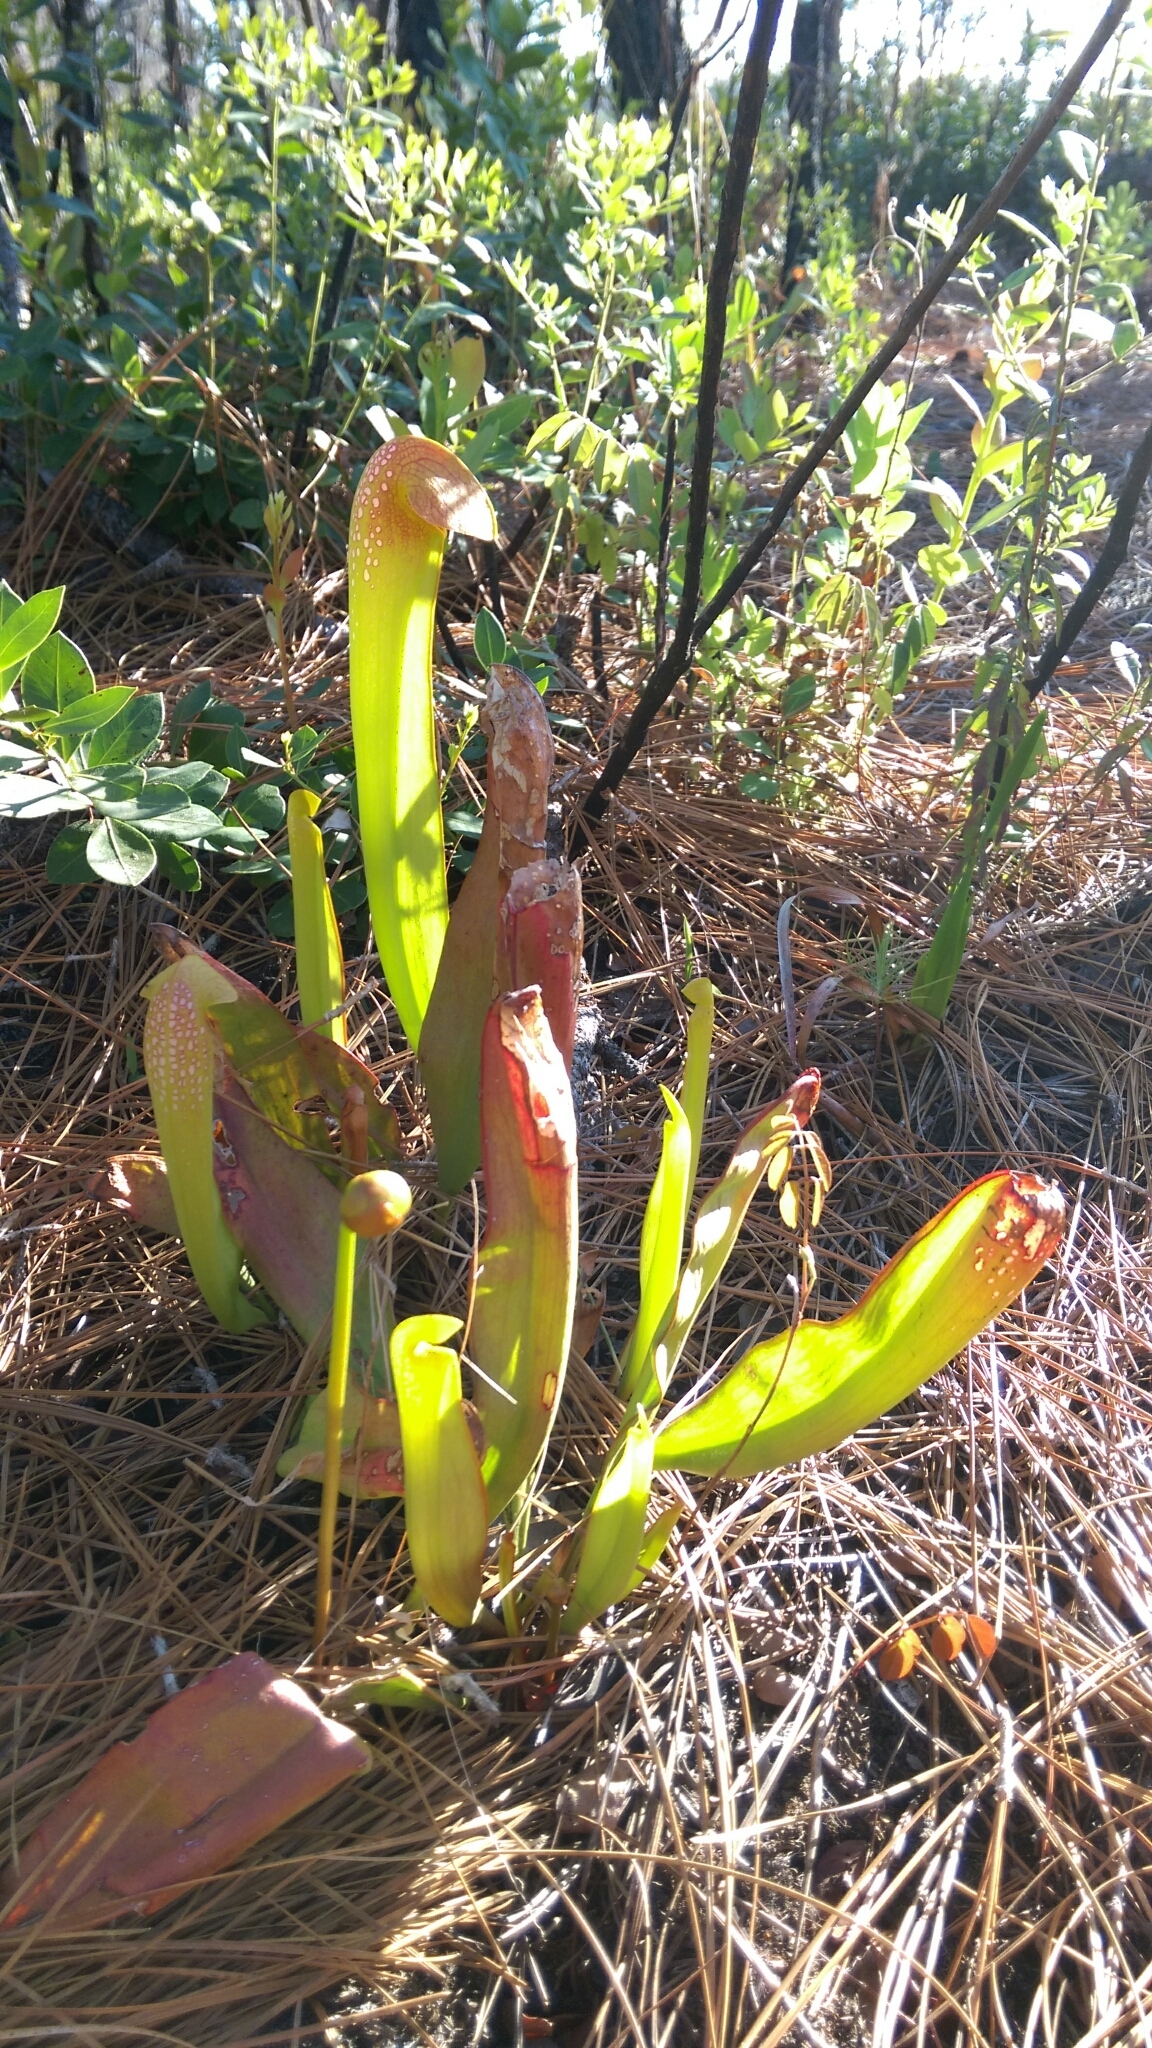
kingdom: Plantae
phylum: Tracheophyta
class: Magnoliopsida
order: Ericales
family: Sarraceniaceae
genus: Sarracenia
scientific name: Sarracenia minor
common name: Rainhat-trumpet
